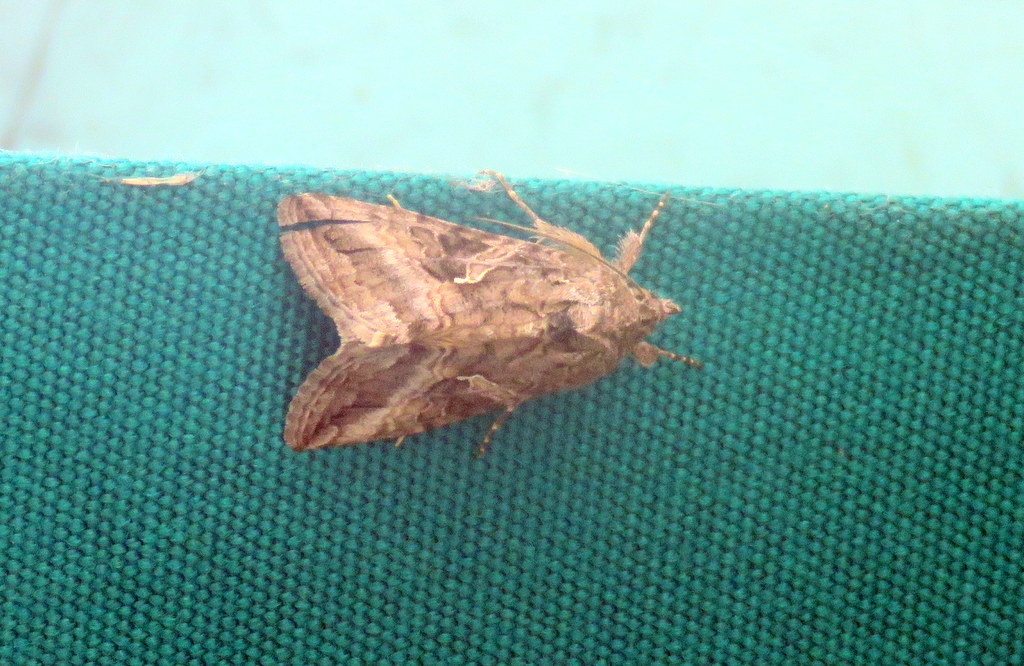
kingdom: Animalia
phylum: Arthropoda
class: Insecta
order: Lepidoptera
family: Noctuidae
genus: Rachiplusia
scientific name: Rachiplusia nu
